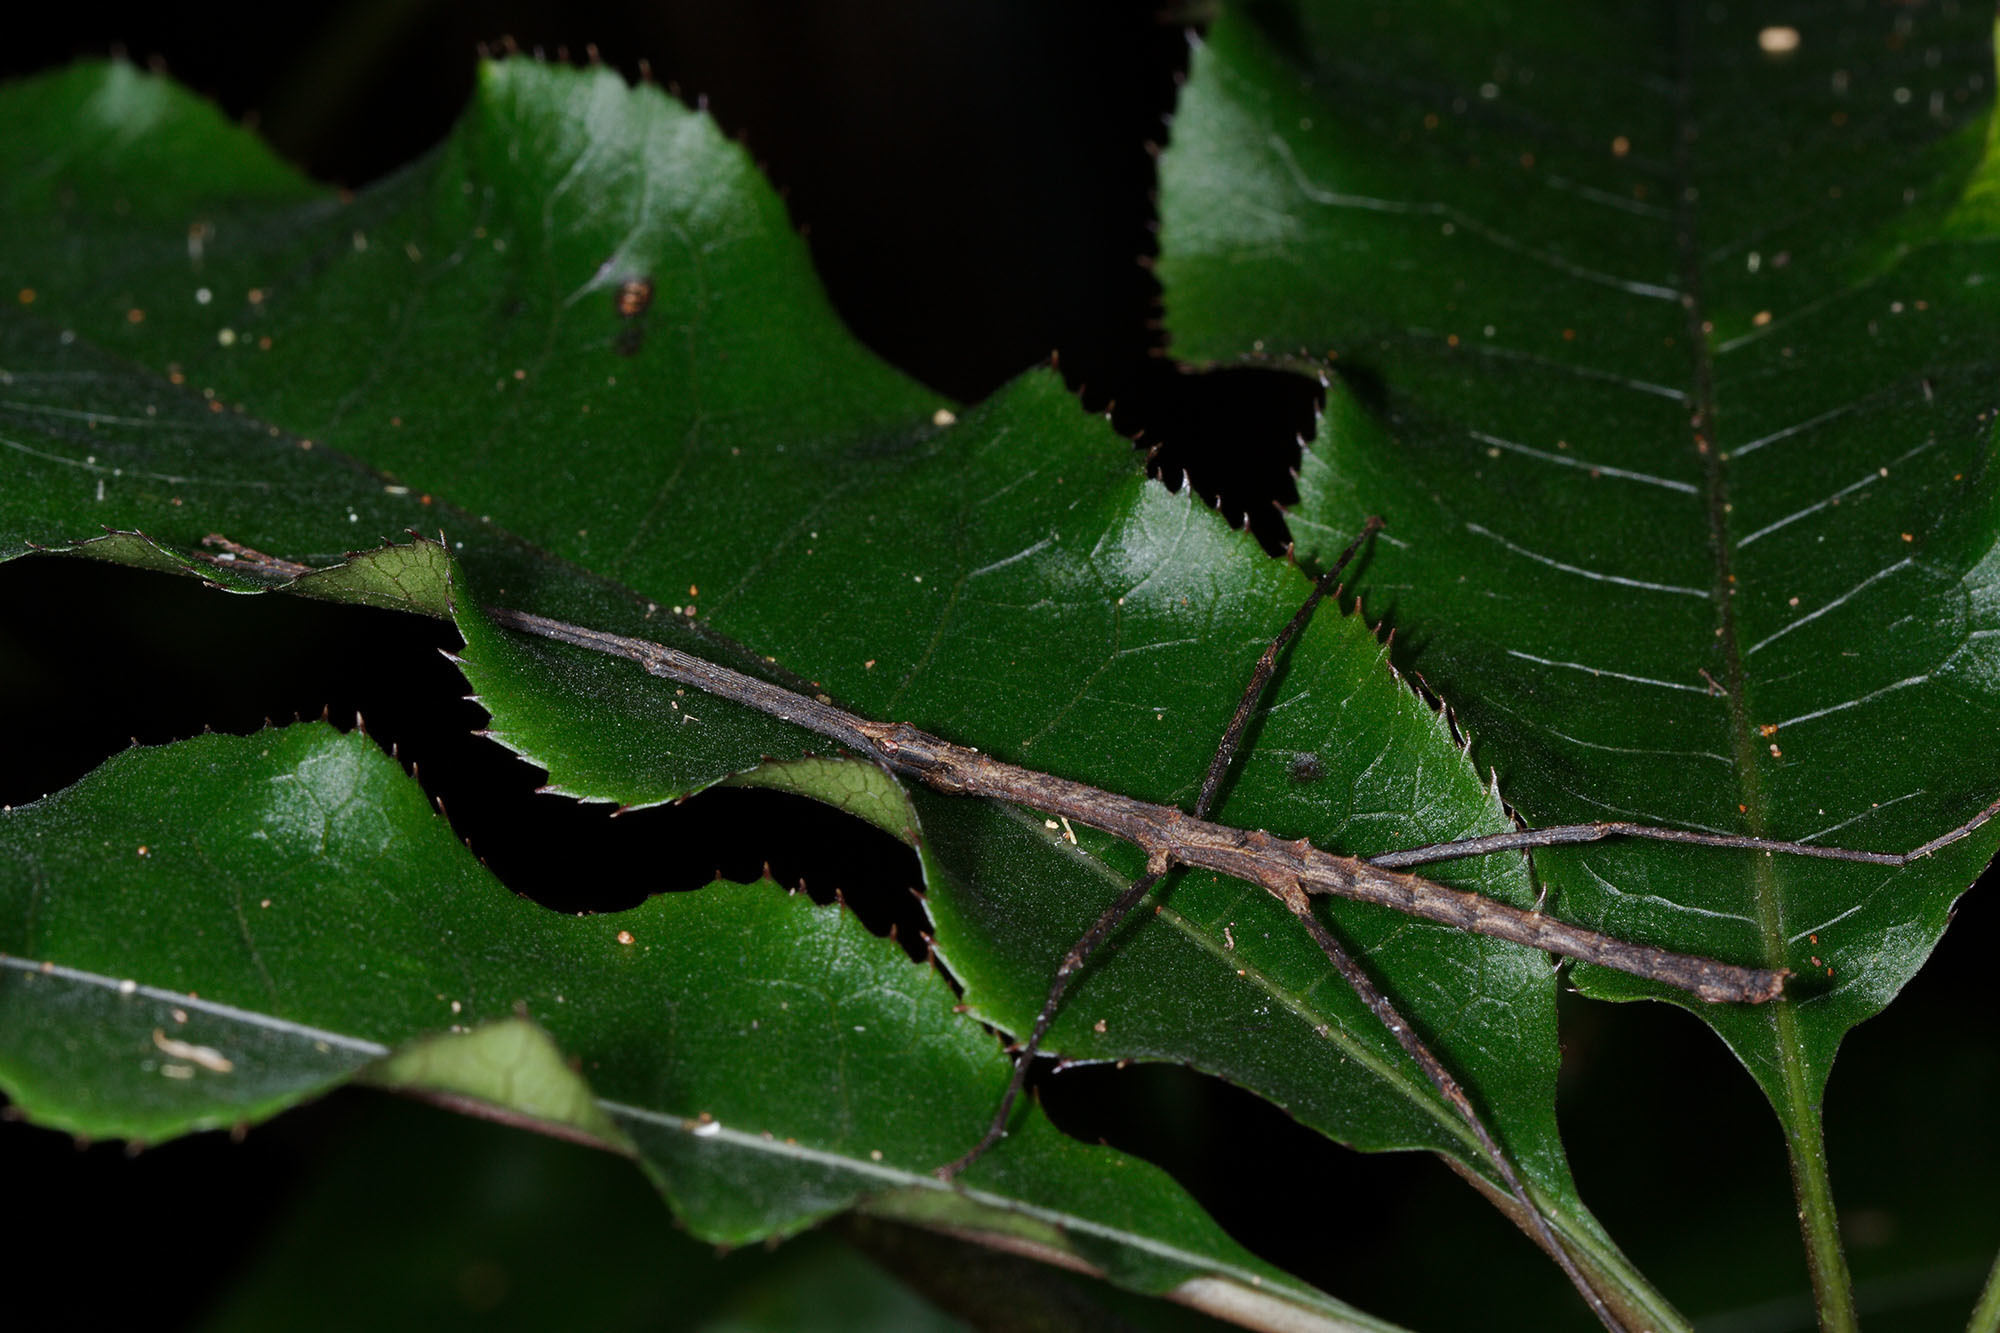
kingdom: Animalia
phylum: Arthropoda
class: Insecta
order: Phasmida
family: Phasmatidae
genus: Spinotectarchus
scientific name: Spinotectarchus acornutus
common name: The spiny ridge-backed stick insect
